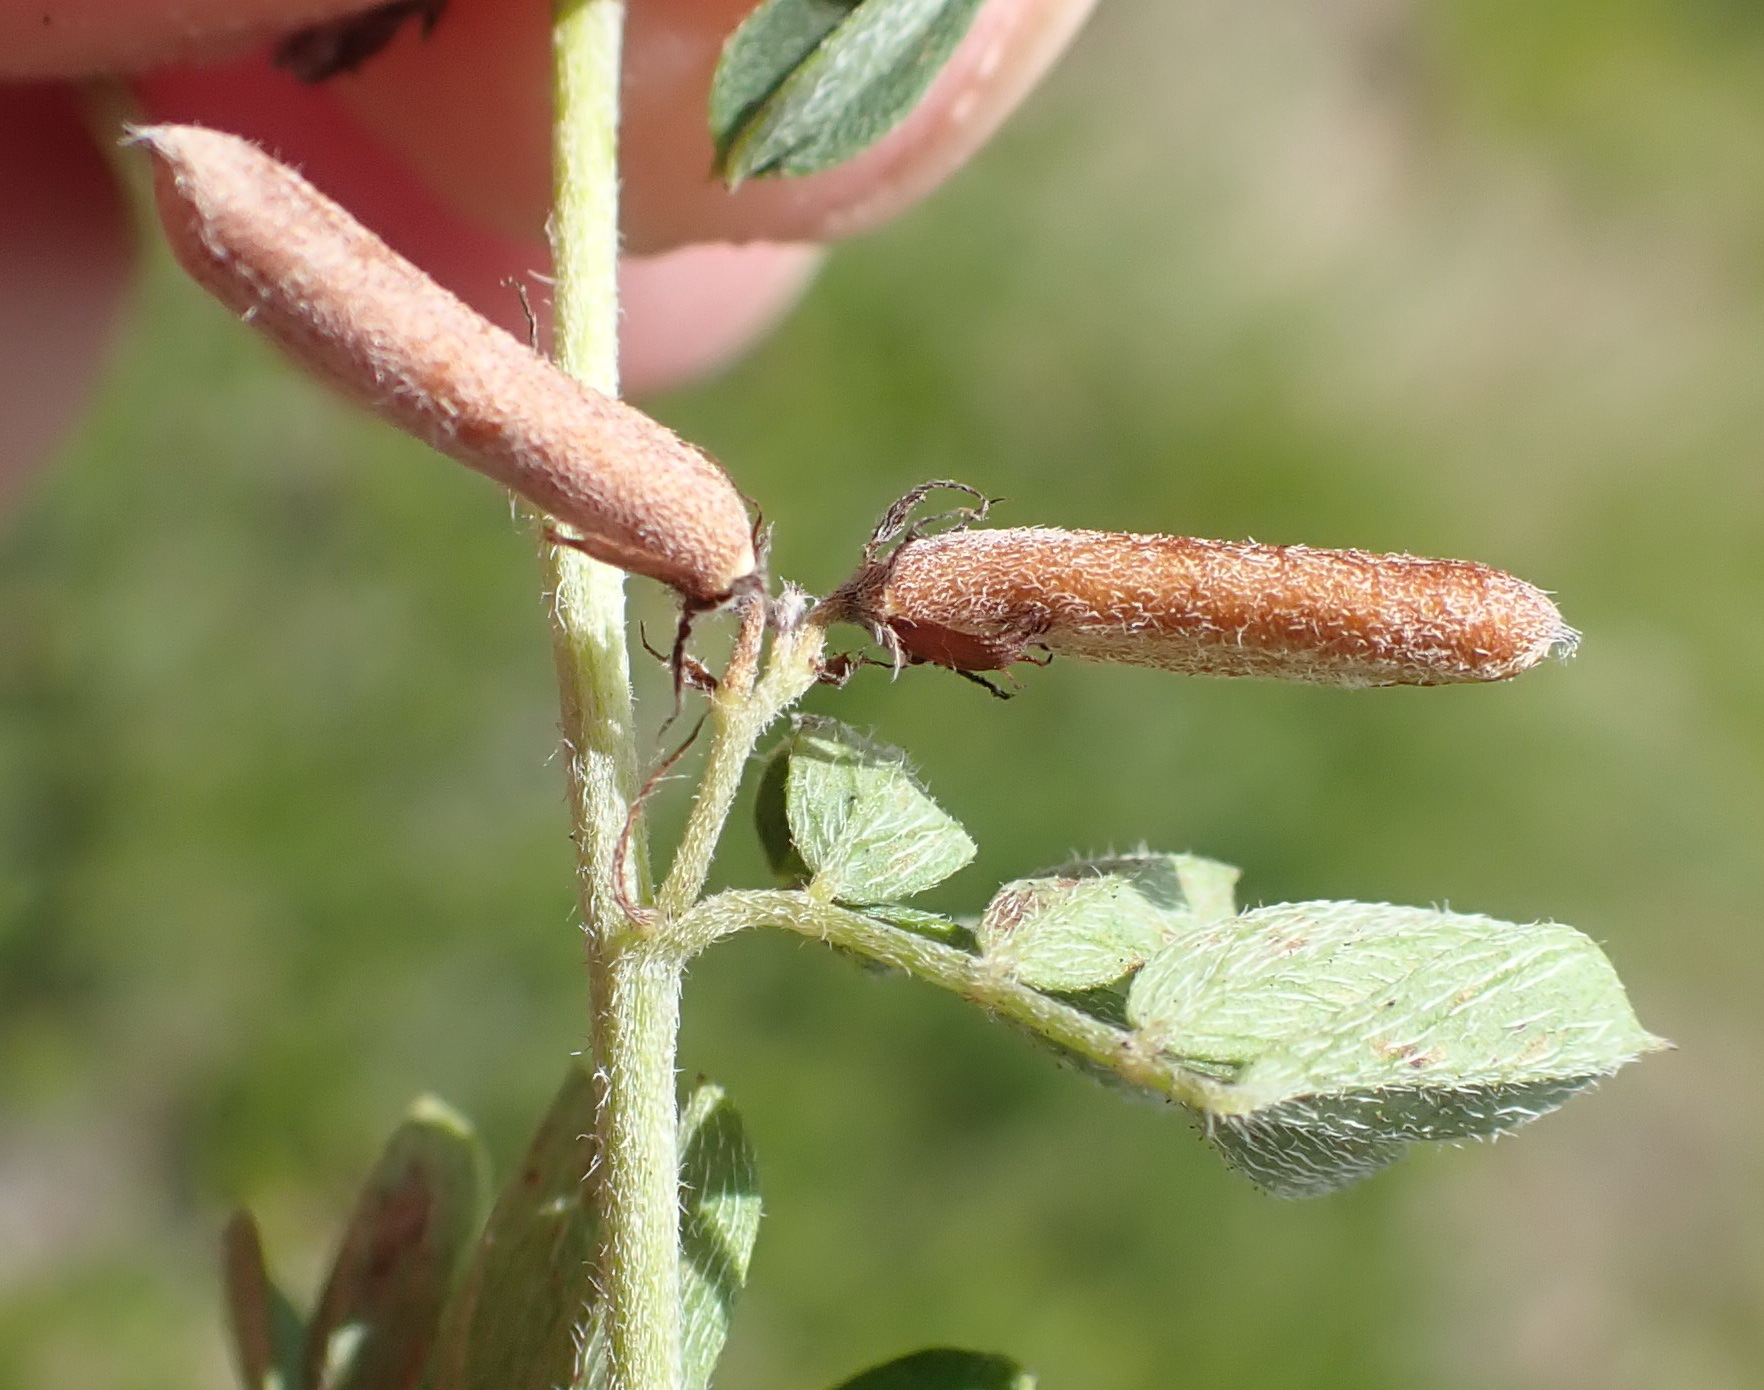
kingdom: Plantae
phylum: Tracheophyta
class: Magnoliopsida
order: Fabales
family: Fabaceae
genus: Indigofera
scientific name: Indigofera poliotes
